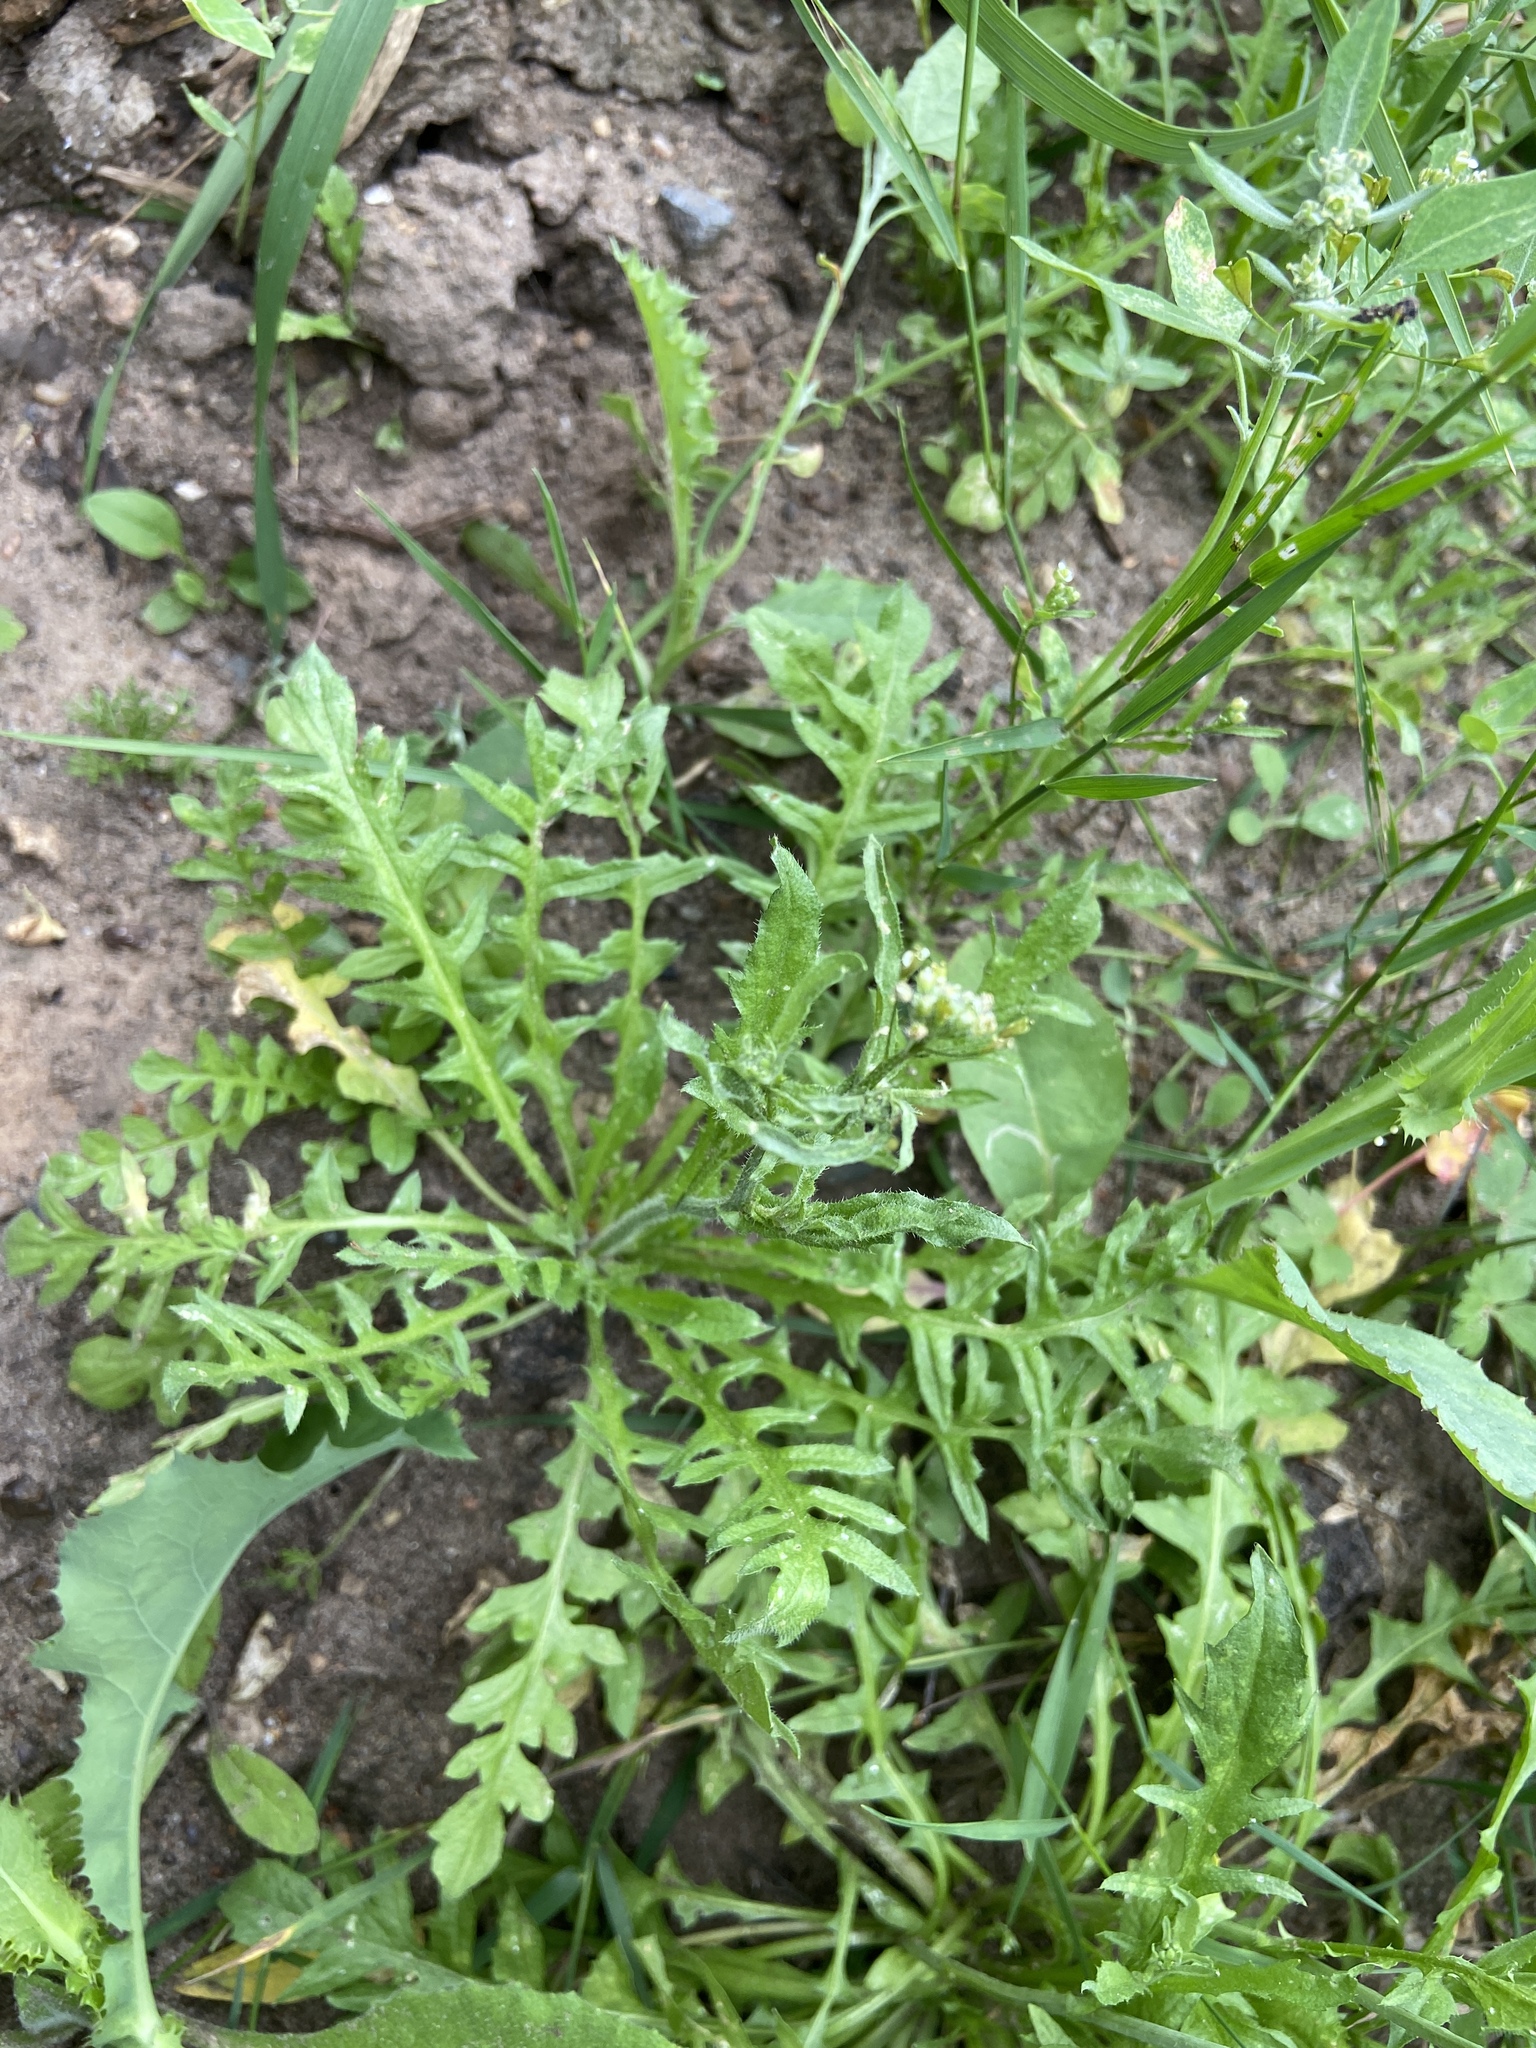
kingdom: Plantae
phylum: Tracheophyta
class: Magnoliopsida
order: Brassicales
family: Brassicaceae
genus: Capsella
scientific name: Capsella bursa-pastoris
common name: Shepherd's purse
